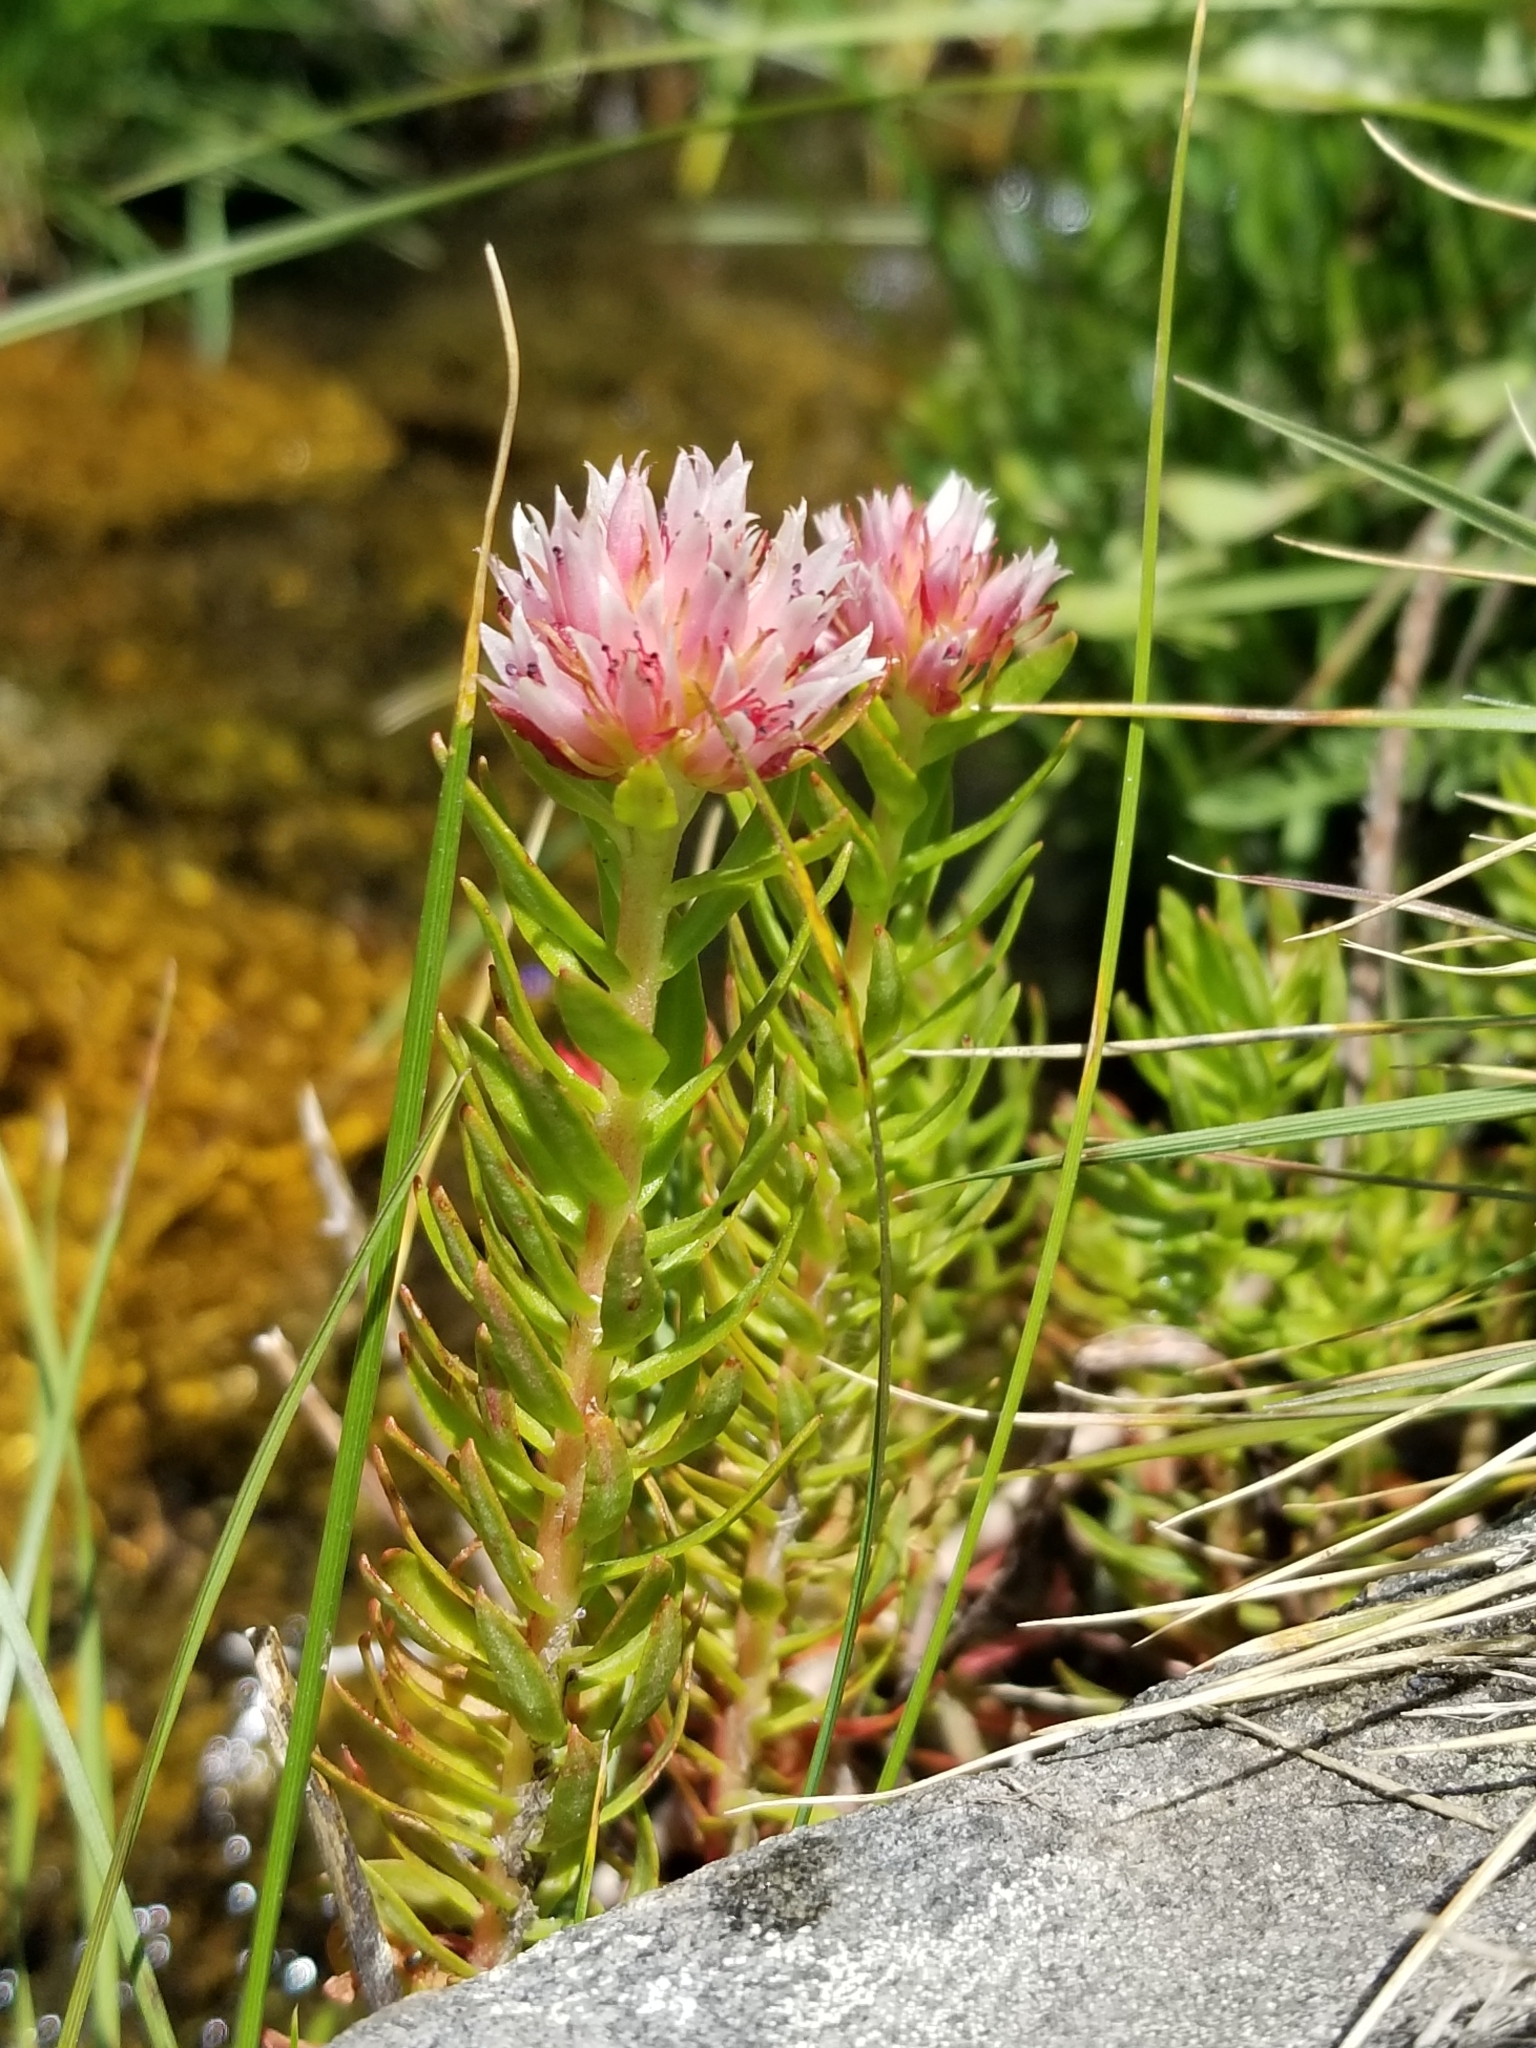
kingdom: Plantae
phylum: Tracheophyta
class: Magnoliopsida
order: Saxifragales
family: Crassulaceae
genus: Rhodiola
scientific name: Rhodiola rhodantha
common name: Red orpine
